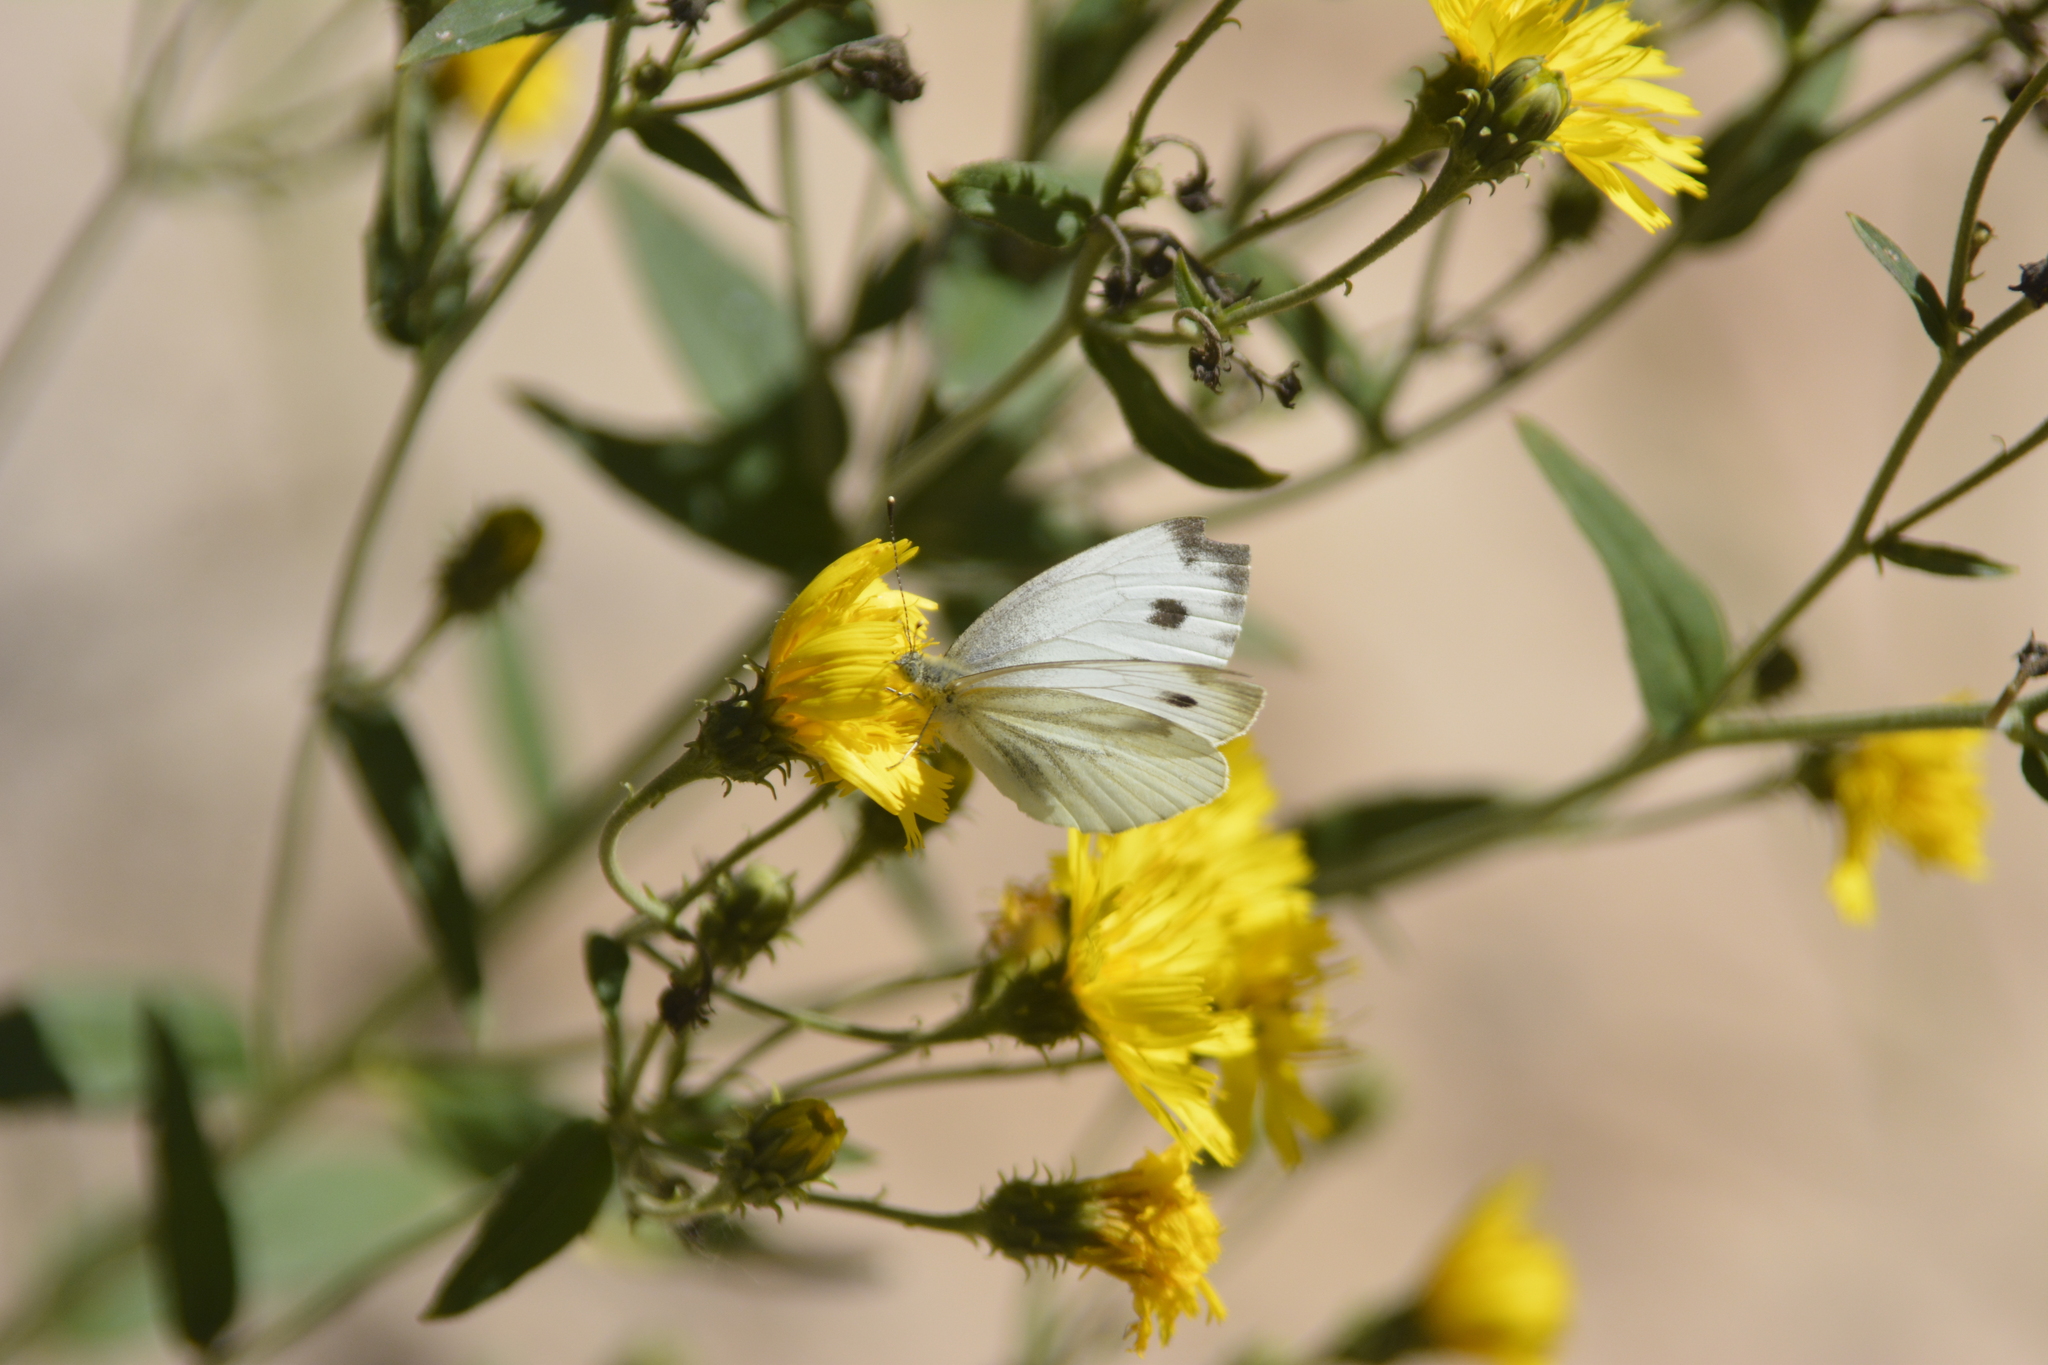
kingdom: Animalia
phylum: Arthropoda
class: Insecta
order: Lepidoptera
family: Pieridae
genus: Pieris
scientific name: Pieris napi
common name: Green-veined white
